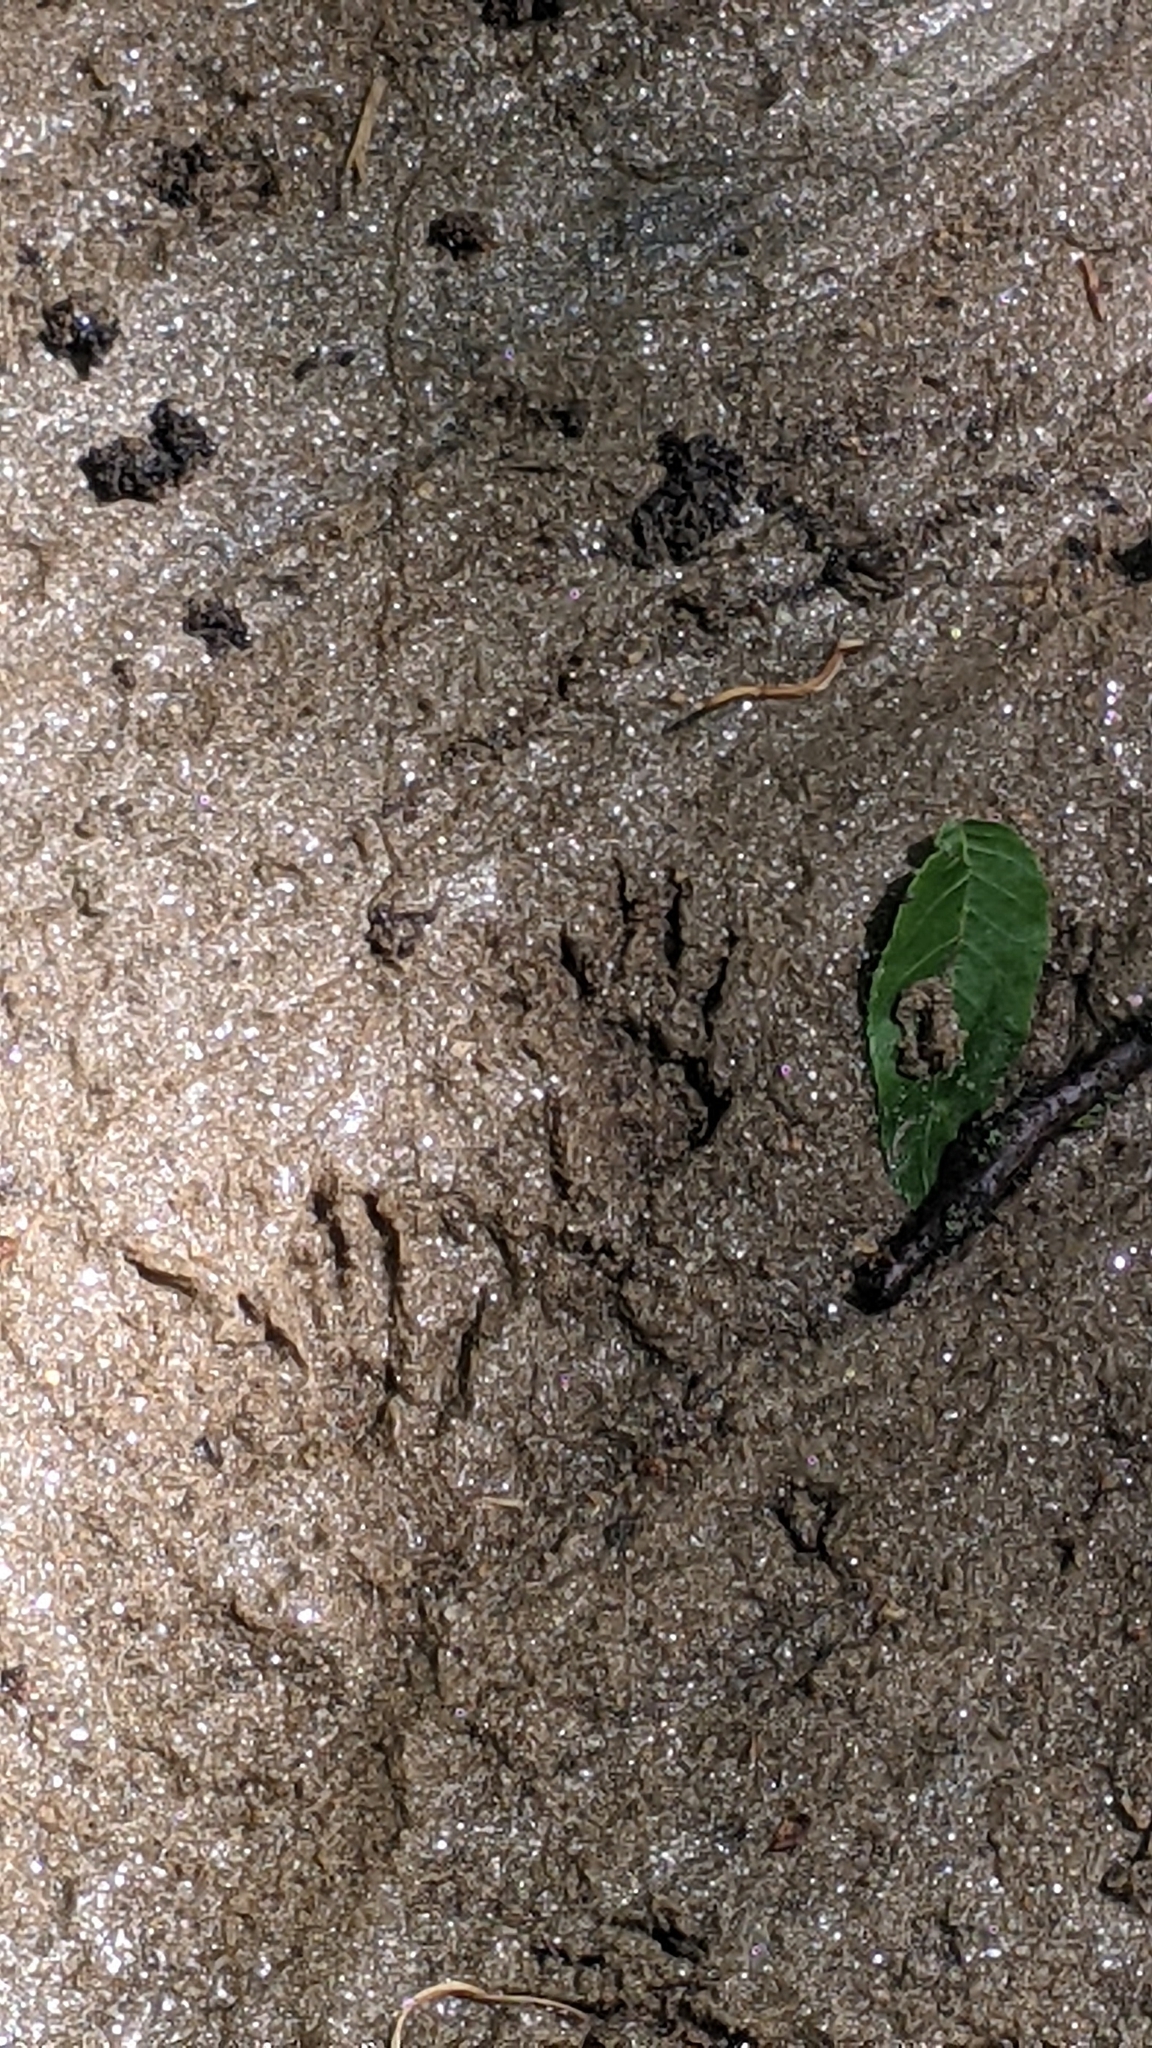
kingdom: Animalia
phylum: Chordata
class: Mammalia
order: Carnivora
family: Procyonidae
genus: Procyon
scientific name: Procyon lotor
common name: Raccoon
